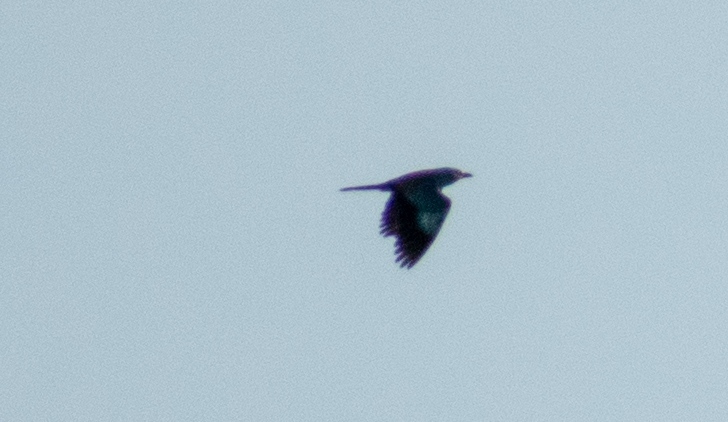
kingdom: Animalia
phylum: Chordata
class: Aves
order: Coraciiformes
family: Coraciidae
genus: Coracias
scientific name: Coracias garrulus
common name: European roller
